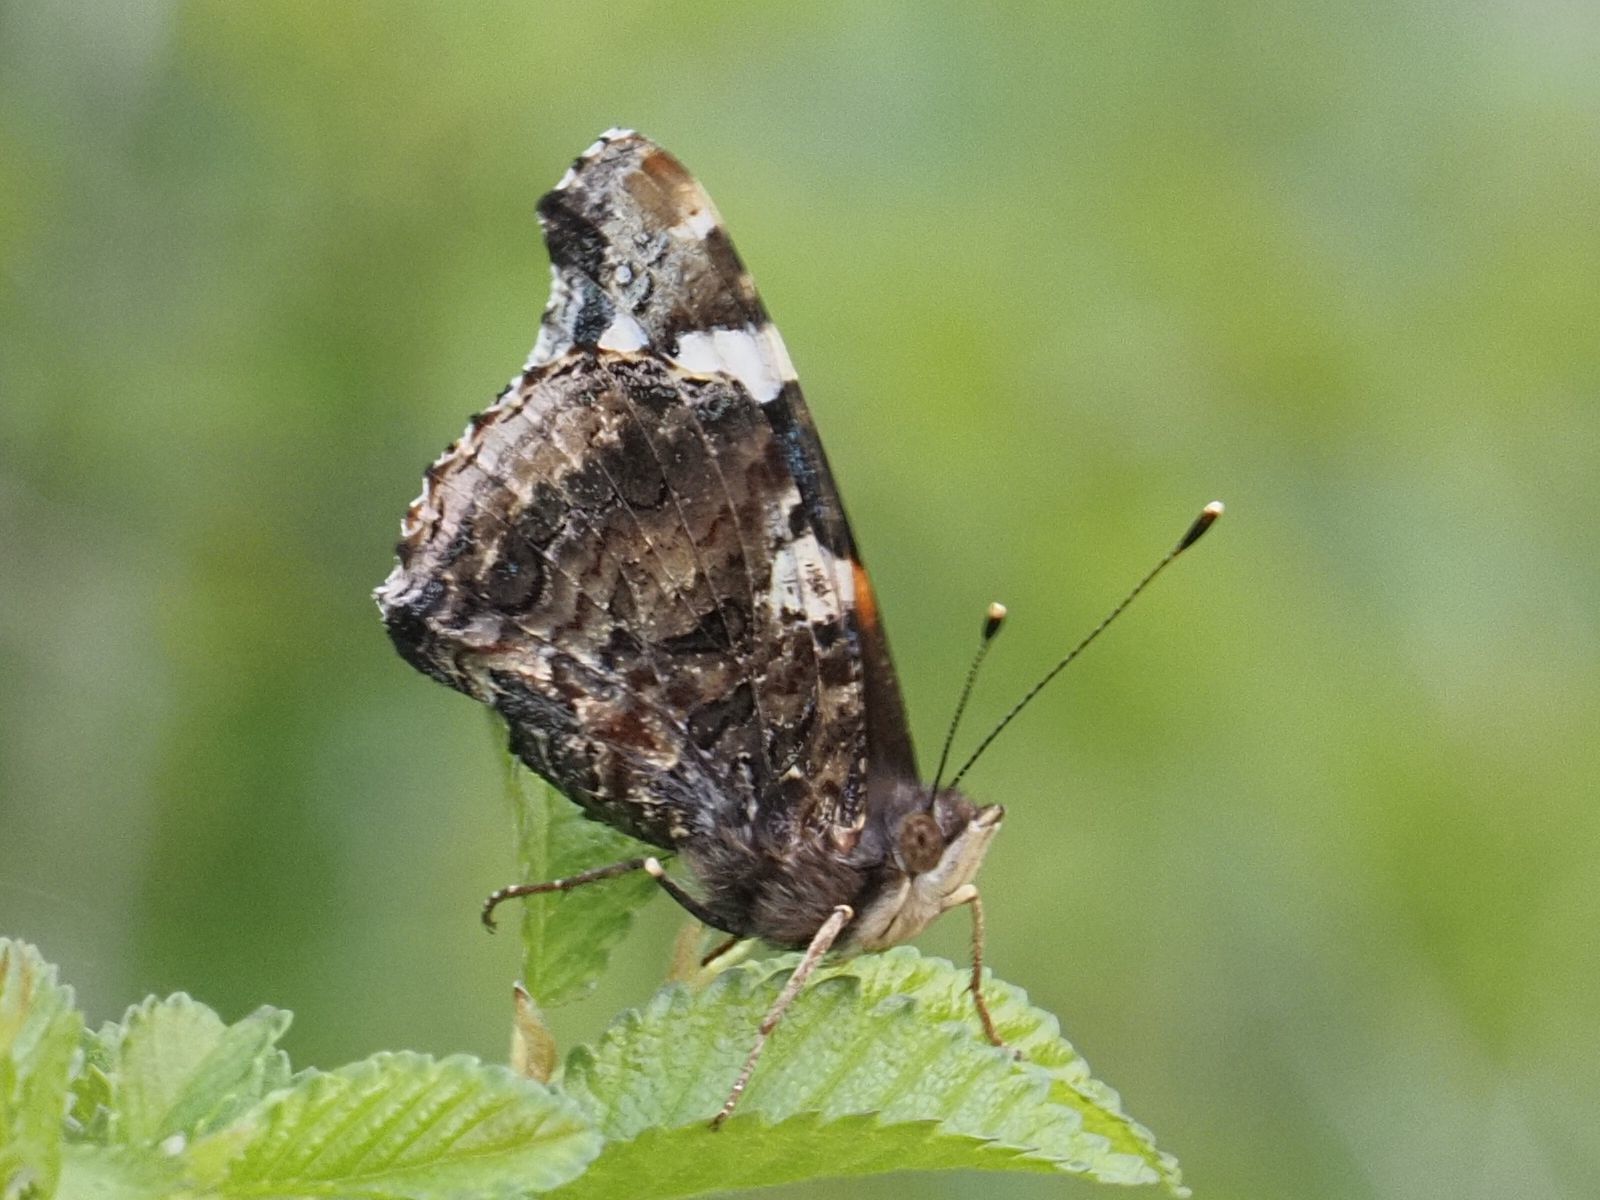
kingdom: Animalia
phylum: Arthropoda
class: Insecta
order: Lepidoptera
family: Nymphalidae
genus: Vanessa
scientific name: Vanessa atalanta
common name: Red admiral
